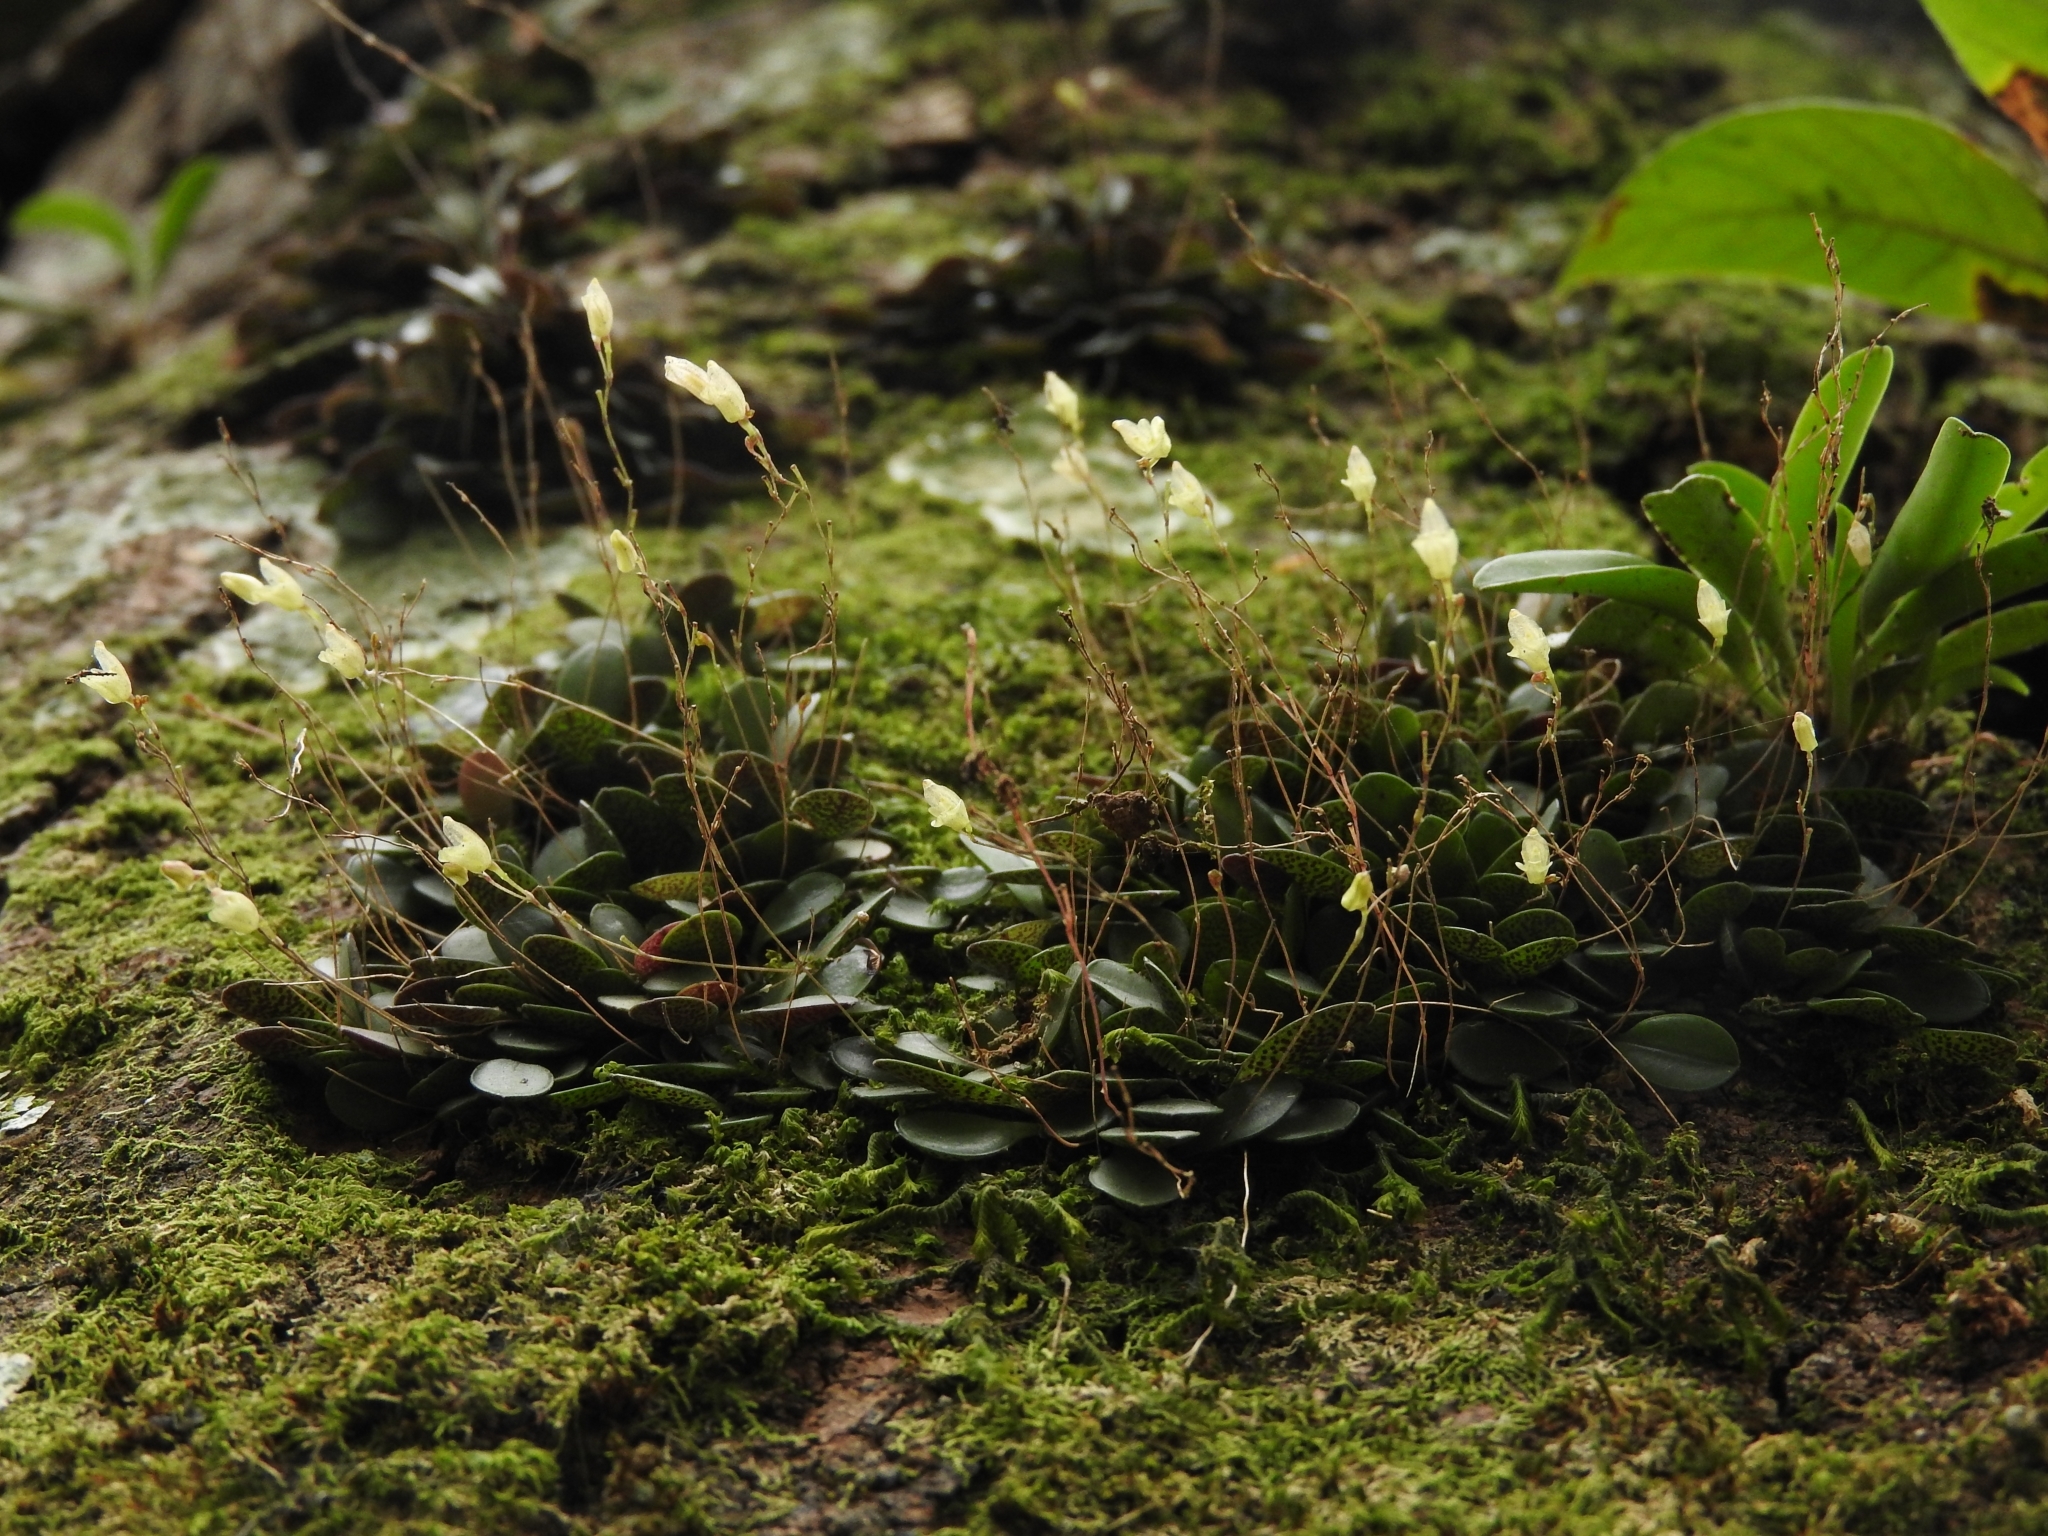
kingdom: Plantae
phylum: Tracheophyta
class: Liliopsida
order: Asparagales
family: Orchidaceae
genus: Specklinia
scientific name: Specklinia digitale
